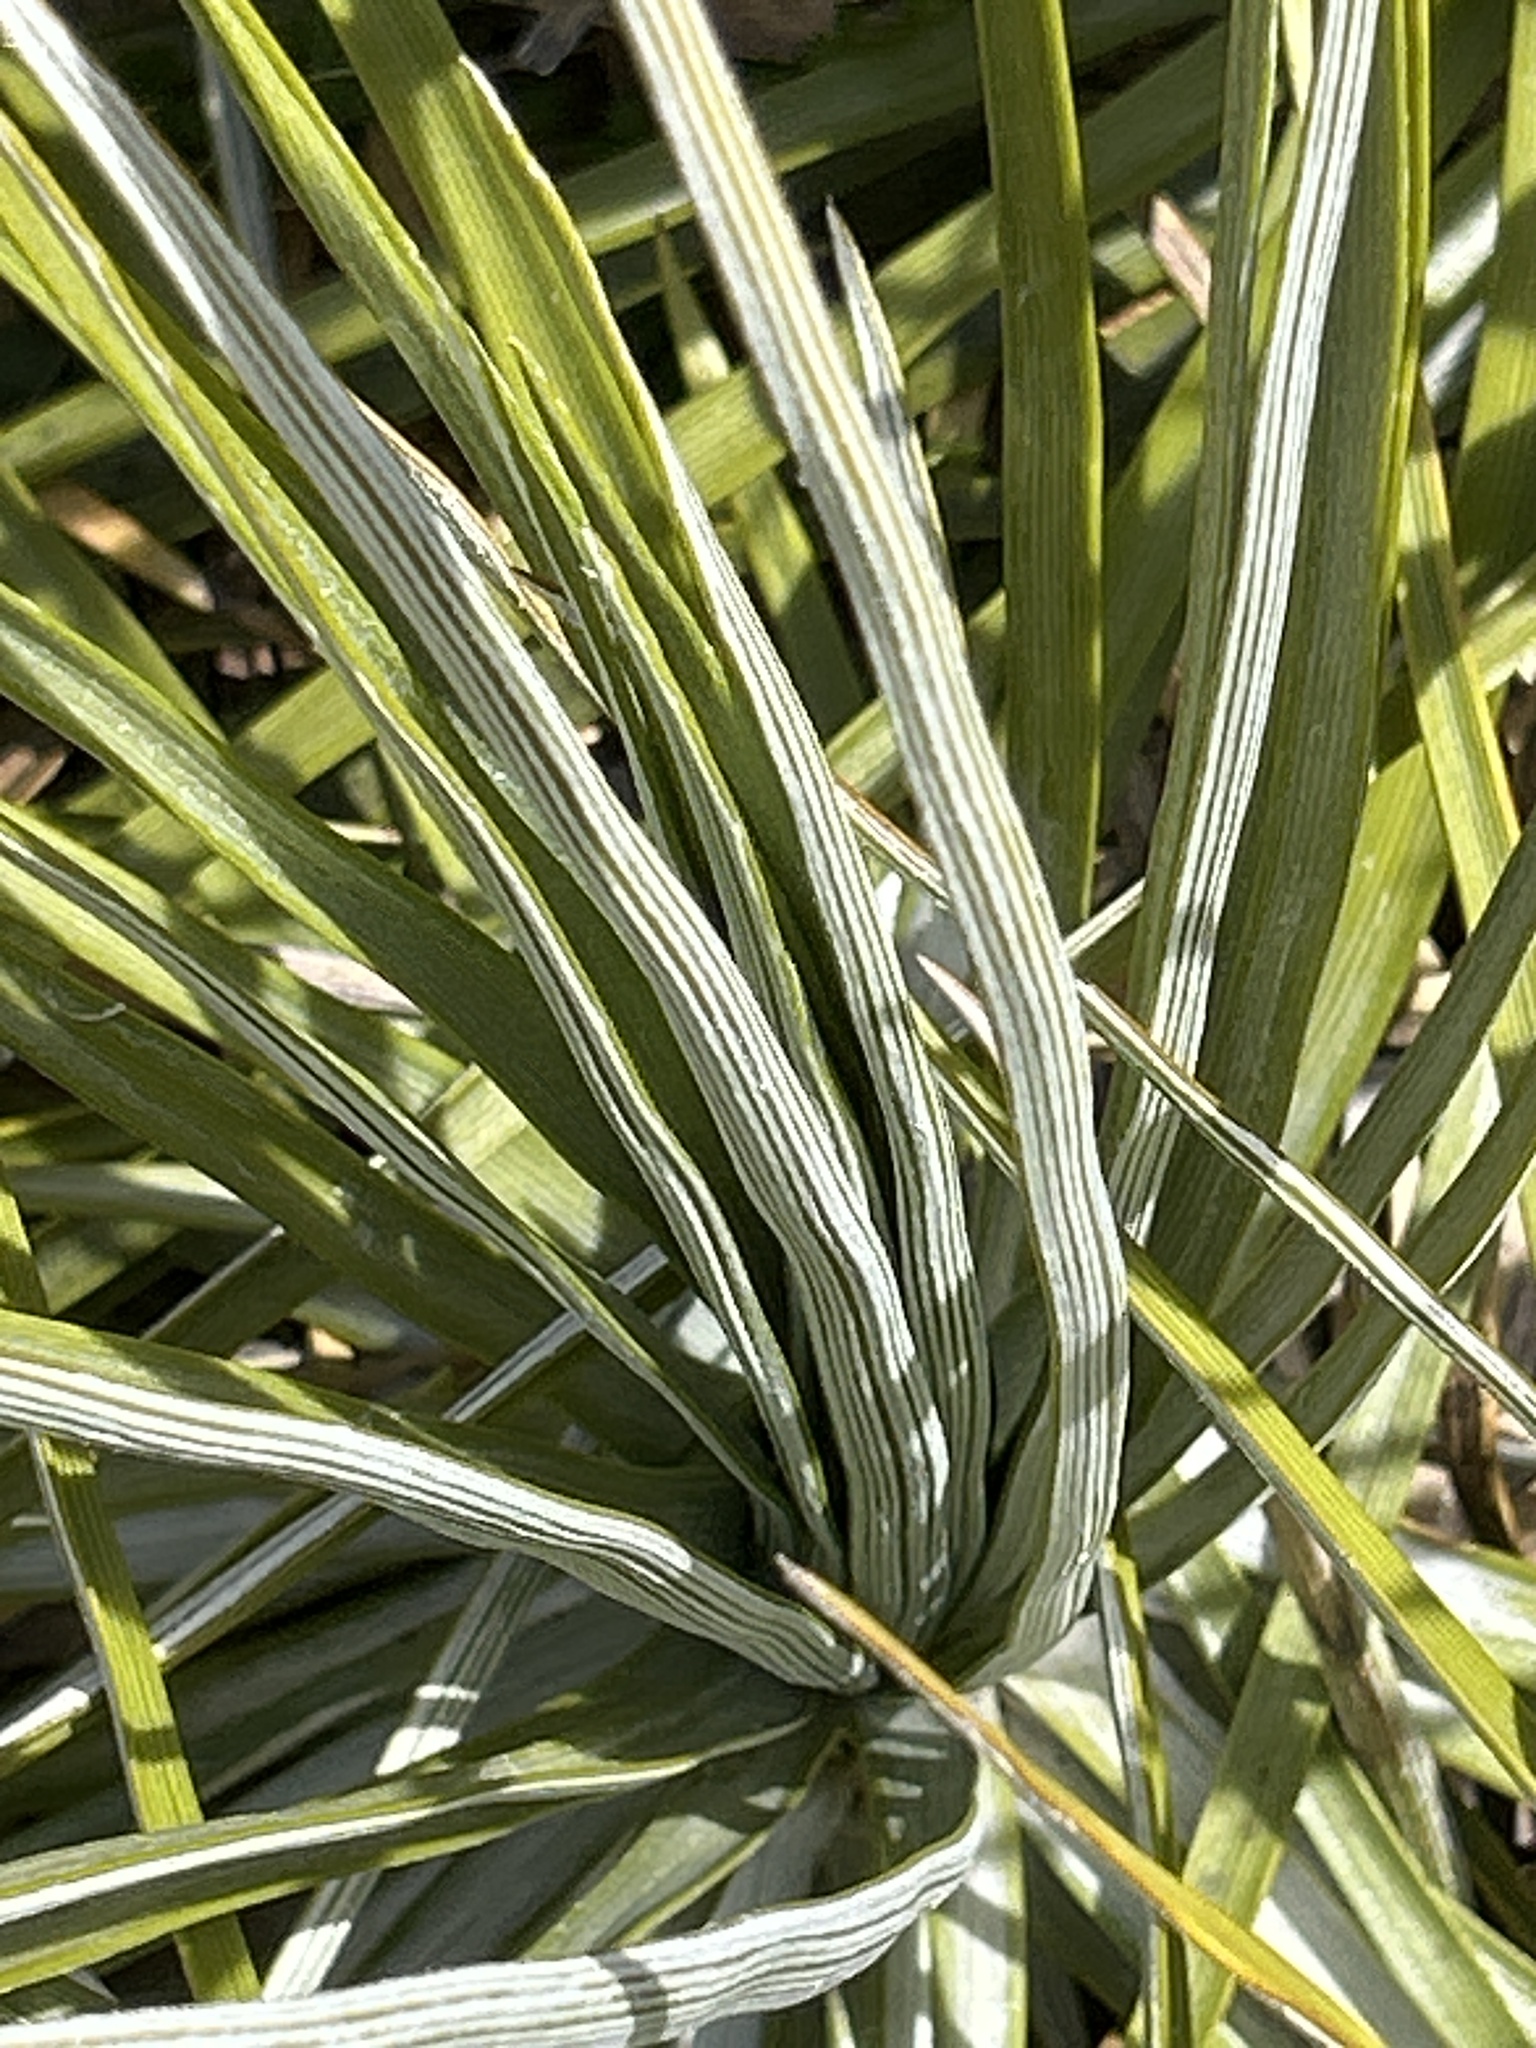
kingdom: Plantae
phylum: Tracheophyta
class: Magnoliopsida
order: Asterales
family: Asteraceae
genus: Celmisia
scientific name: Celmisia lyallii
